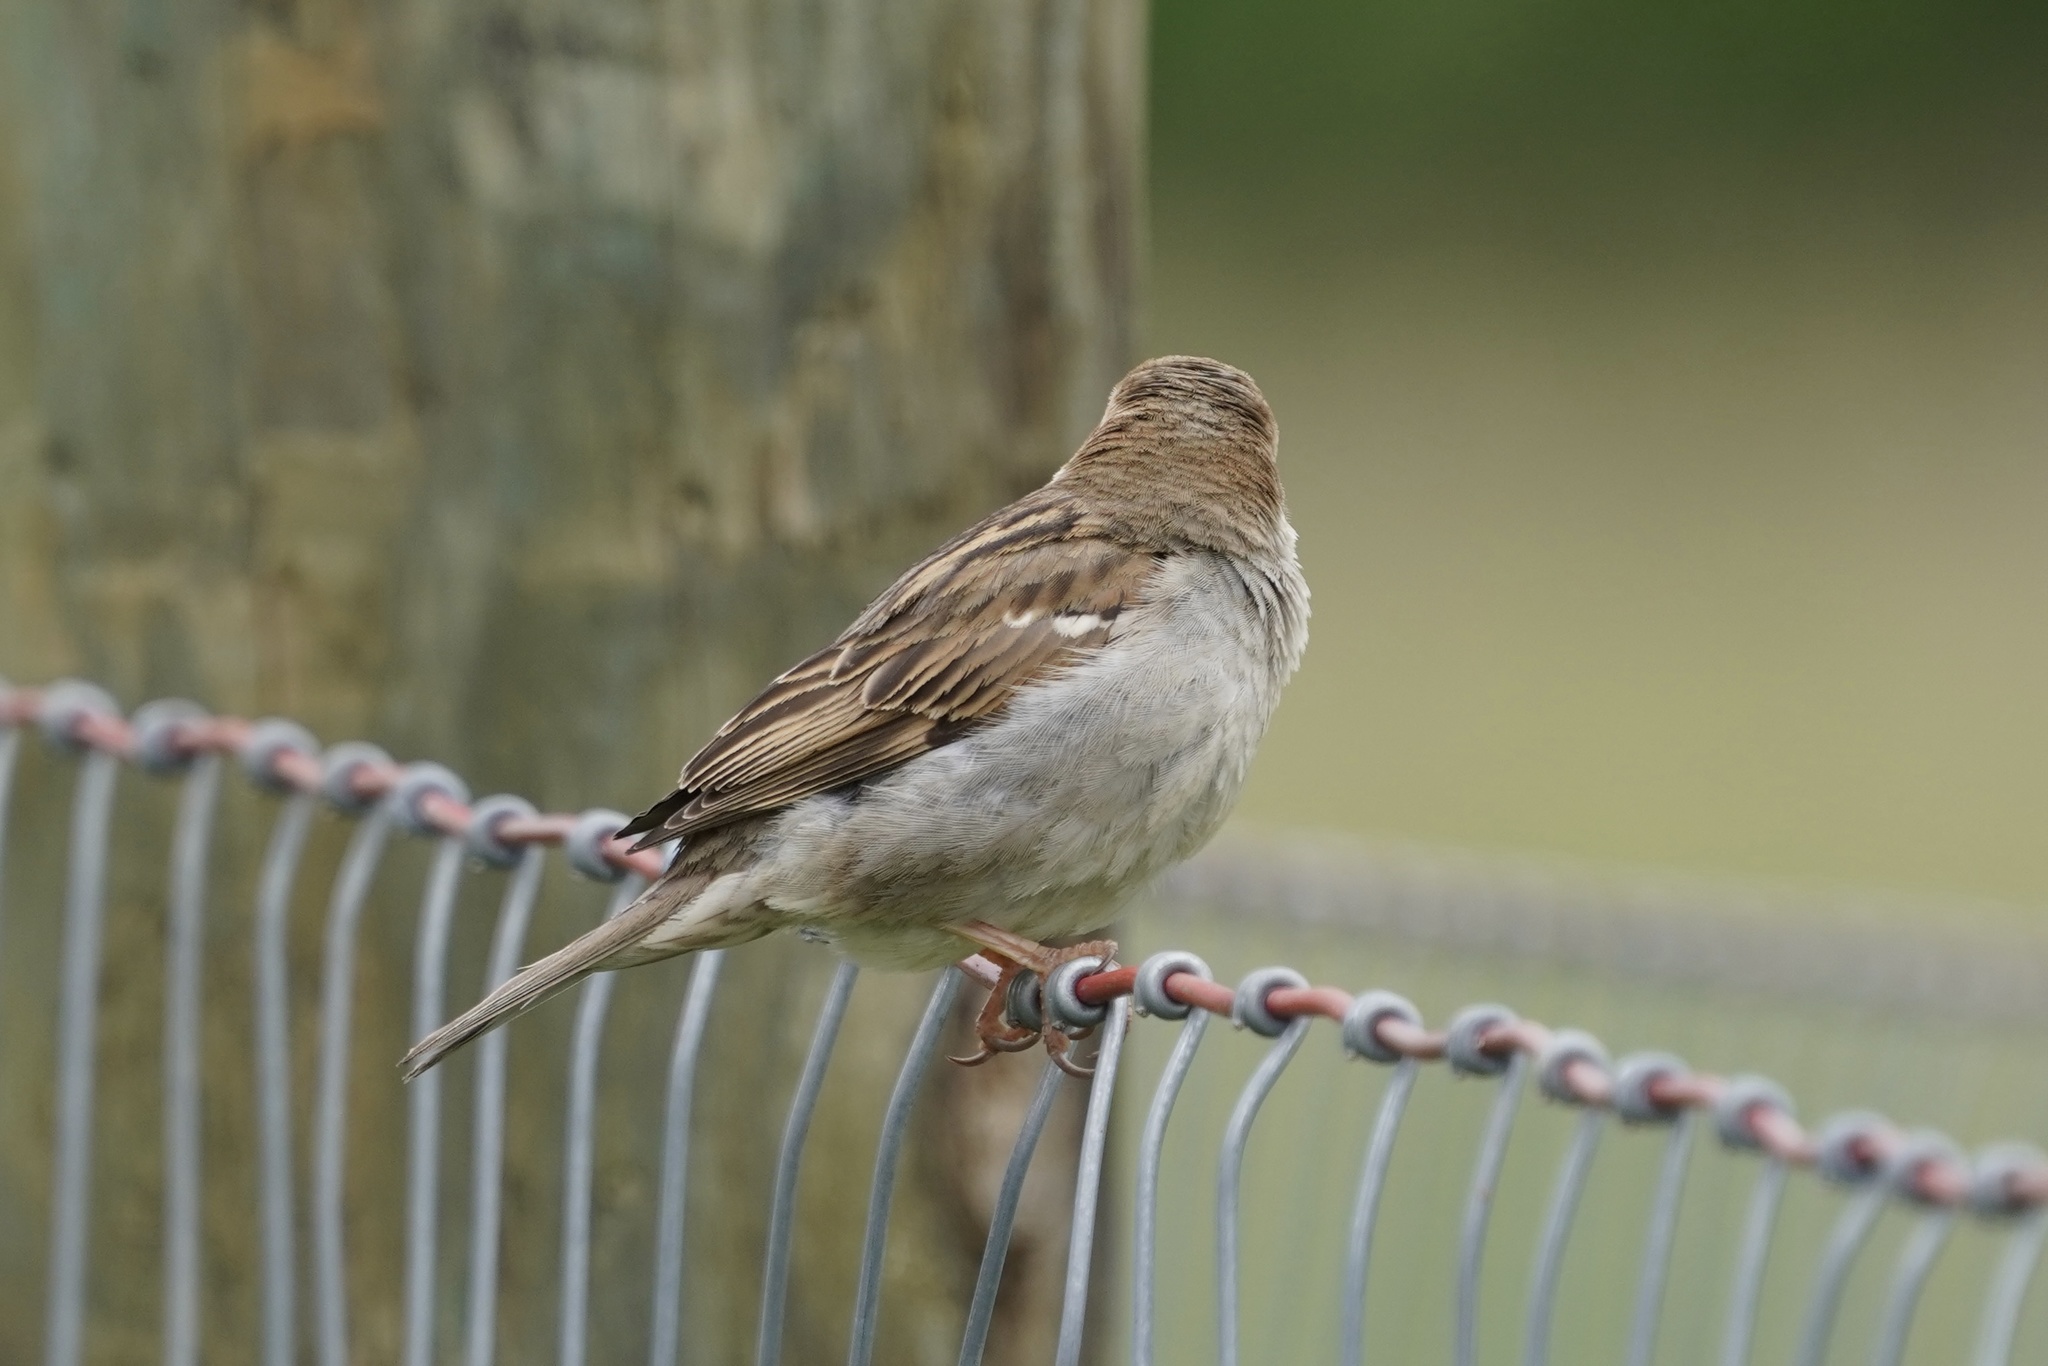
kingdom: Animalia
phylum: Chordata
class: Aves
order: Passeriformes
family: Passeridae
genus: Passer
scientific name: Passer domesticus
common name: House sparrow
